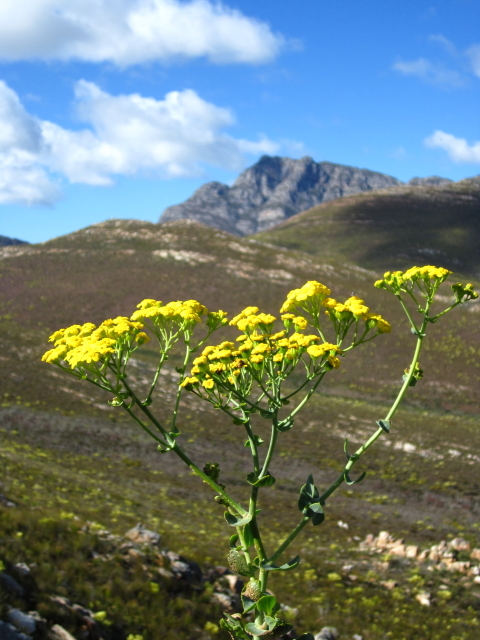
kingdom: Plantae
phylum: Tracheophyta
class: Magnoliopsida
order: Asterales
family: Asteraceae
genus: Othonna
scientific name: Othonna parviflora
